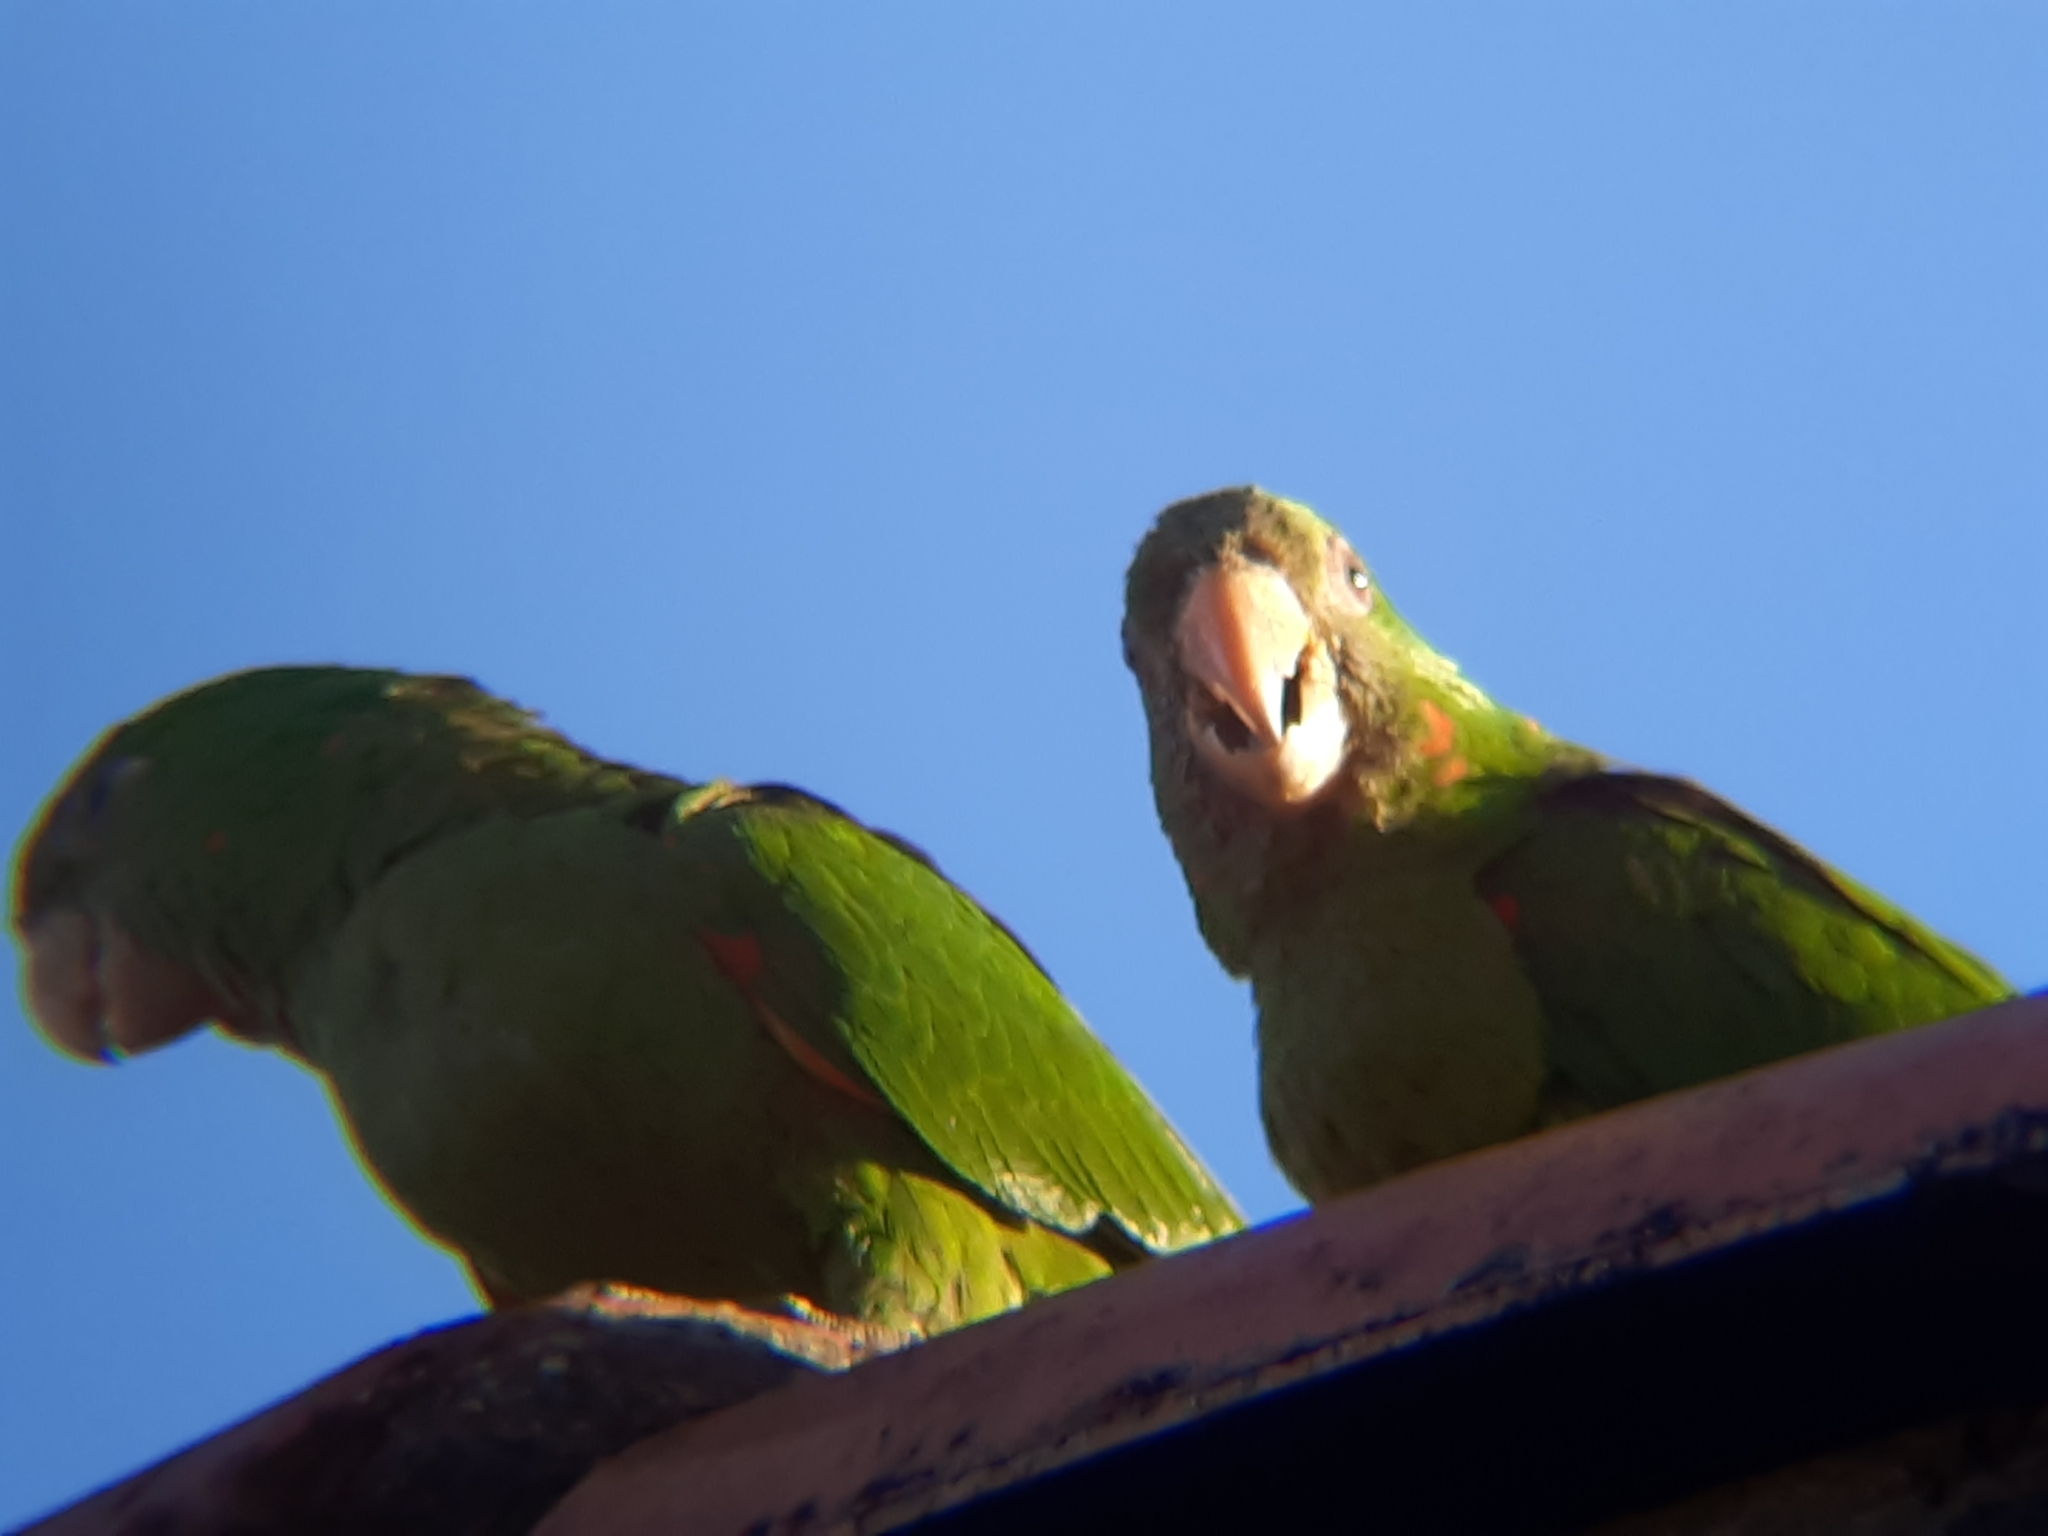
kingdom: Animalia
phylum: Chordata
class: Aves
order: Psittaciformes
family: Psittacidae
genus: Aratinga
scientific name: Aratinga leucophthalma
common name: White-eyed parakeet
